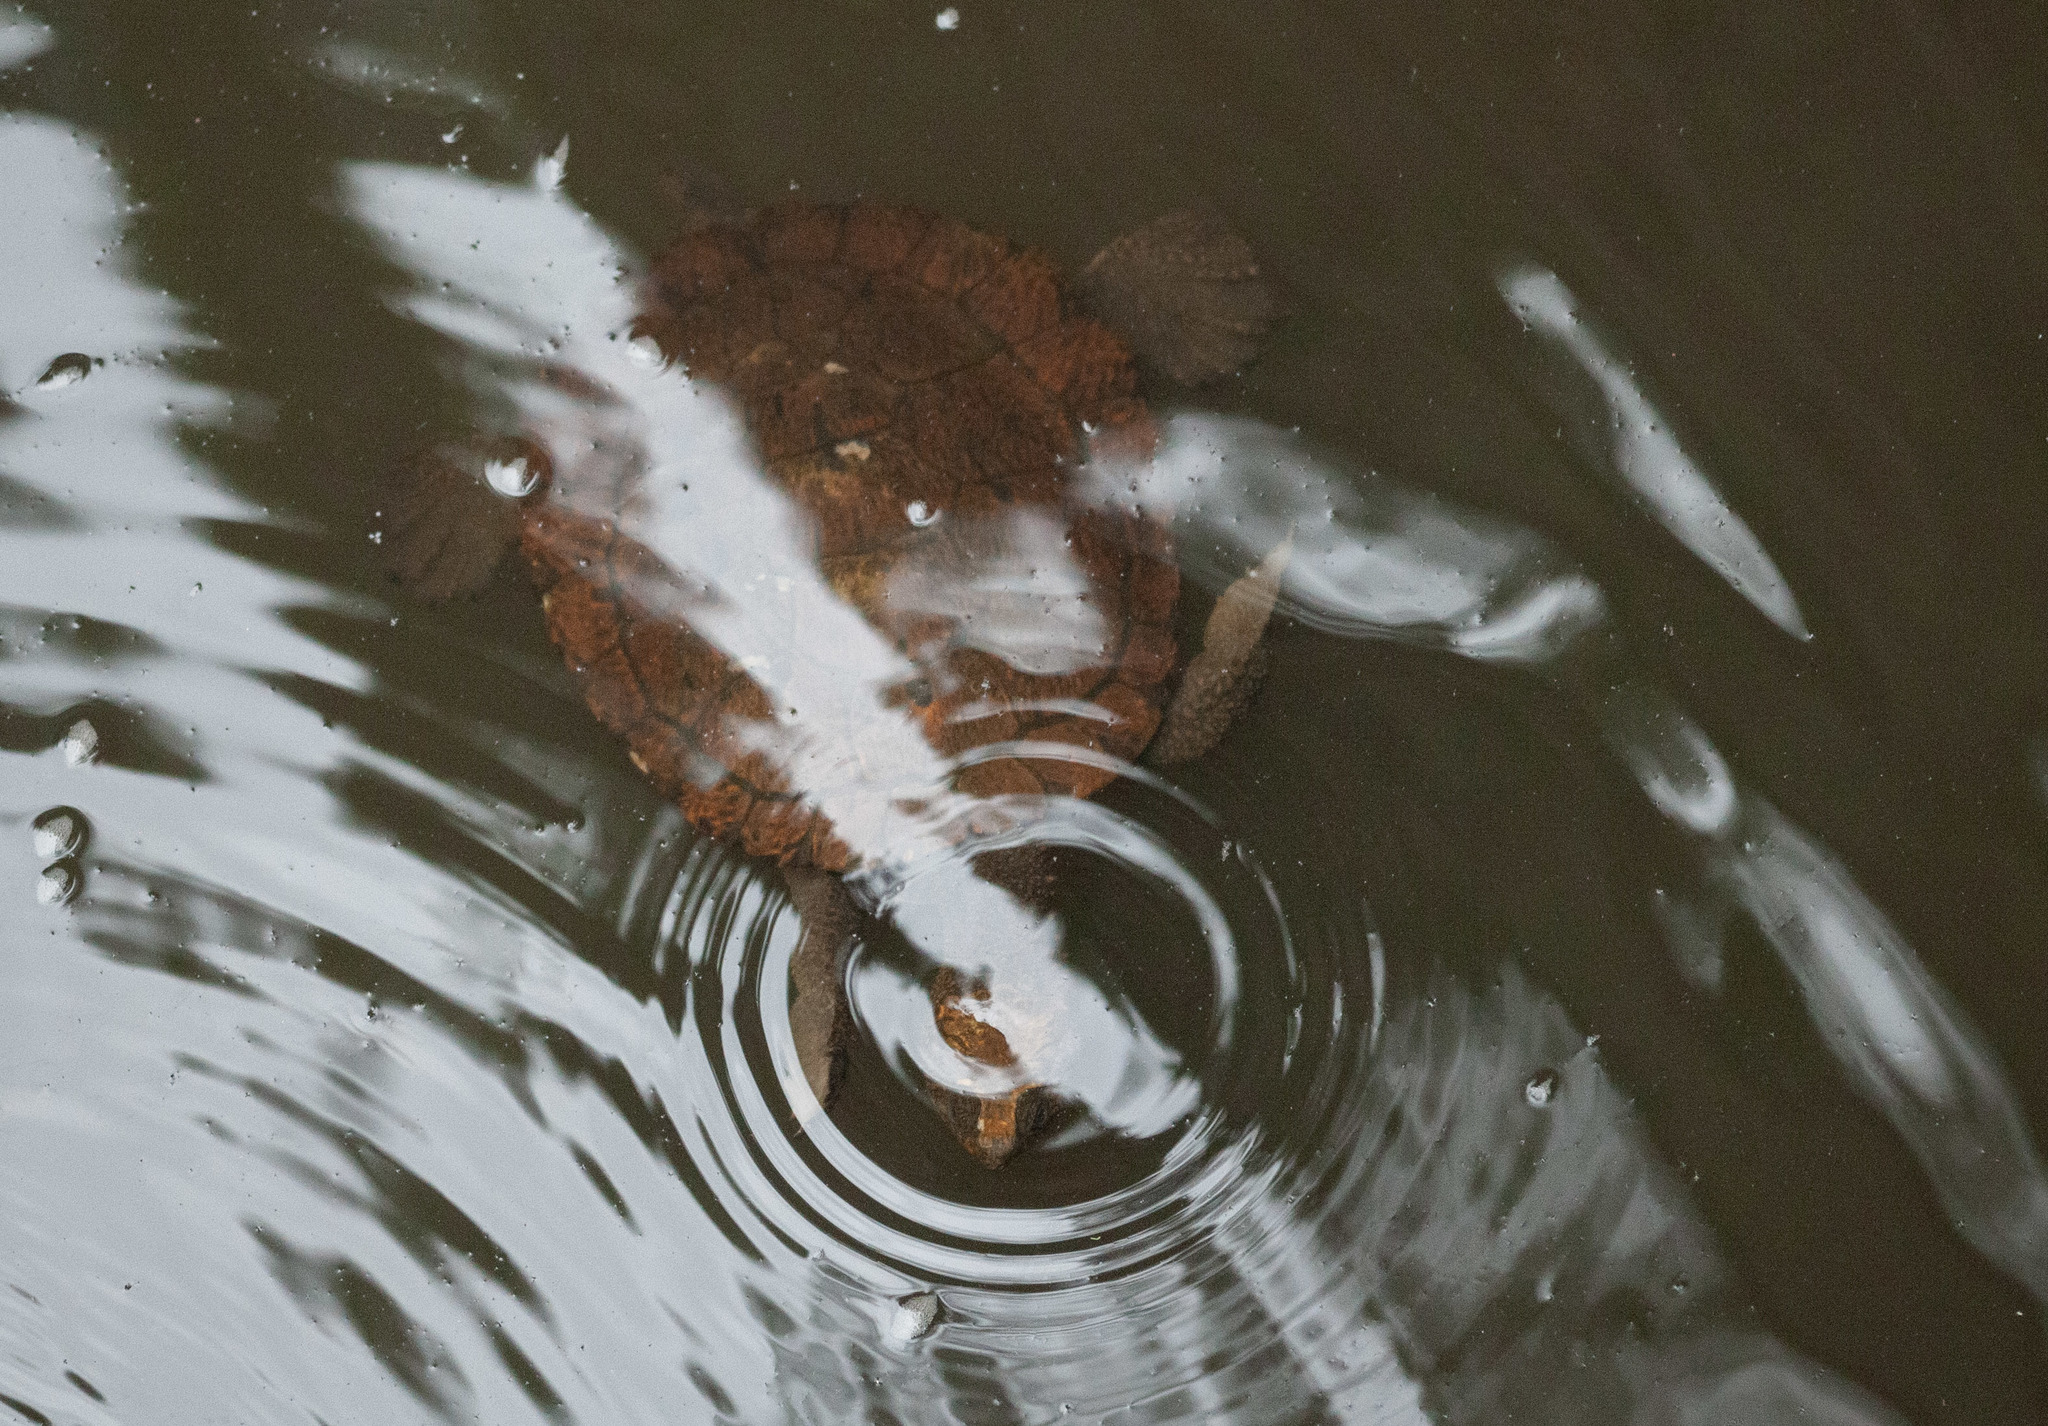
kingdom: Animalia
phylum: Chordata
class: Testudines
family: Chelidae
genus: Myuchelys
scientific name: Myuchelys latisternum
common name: Serrated snapping turtle
